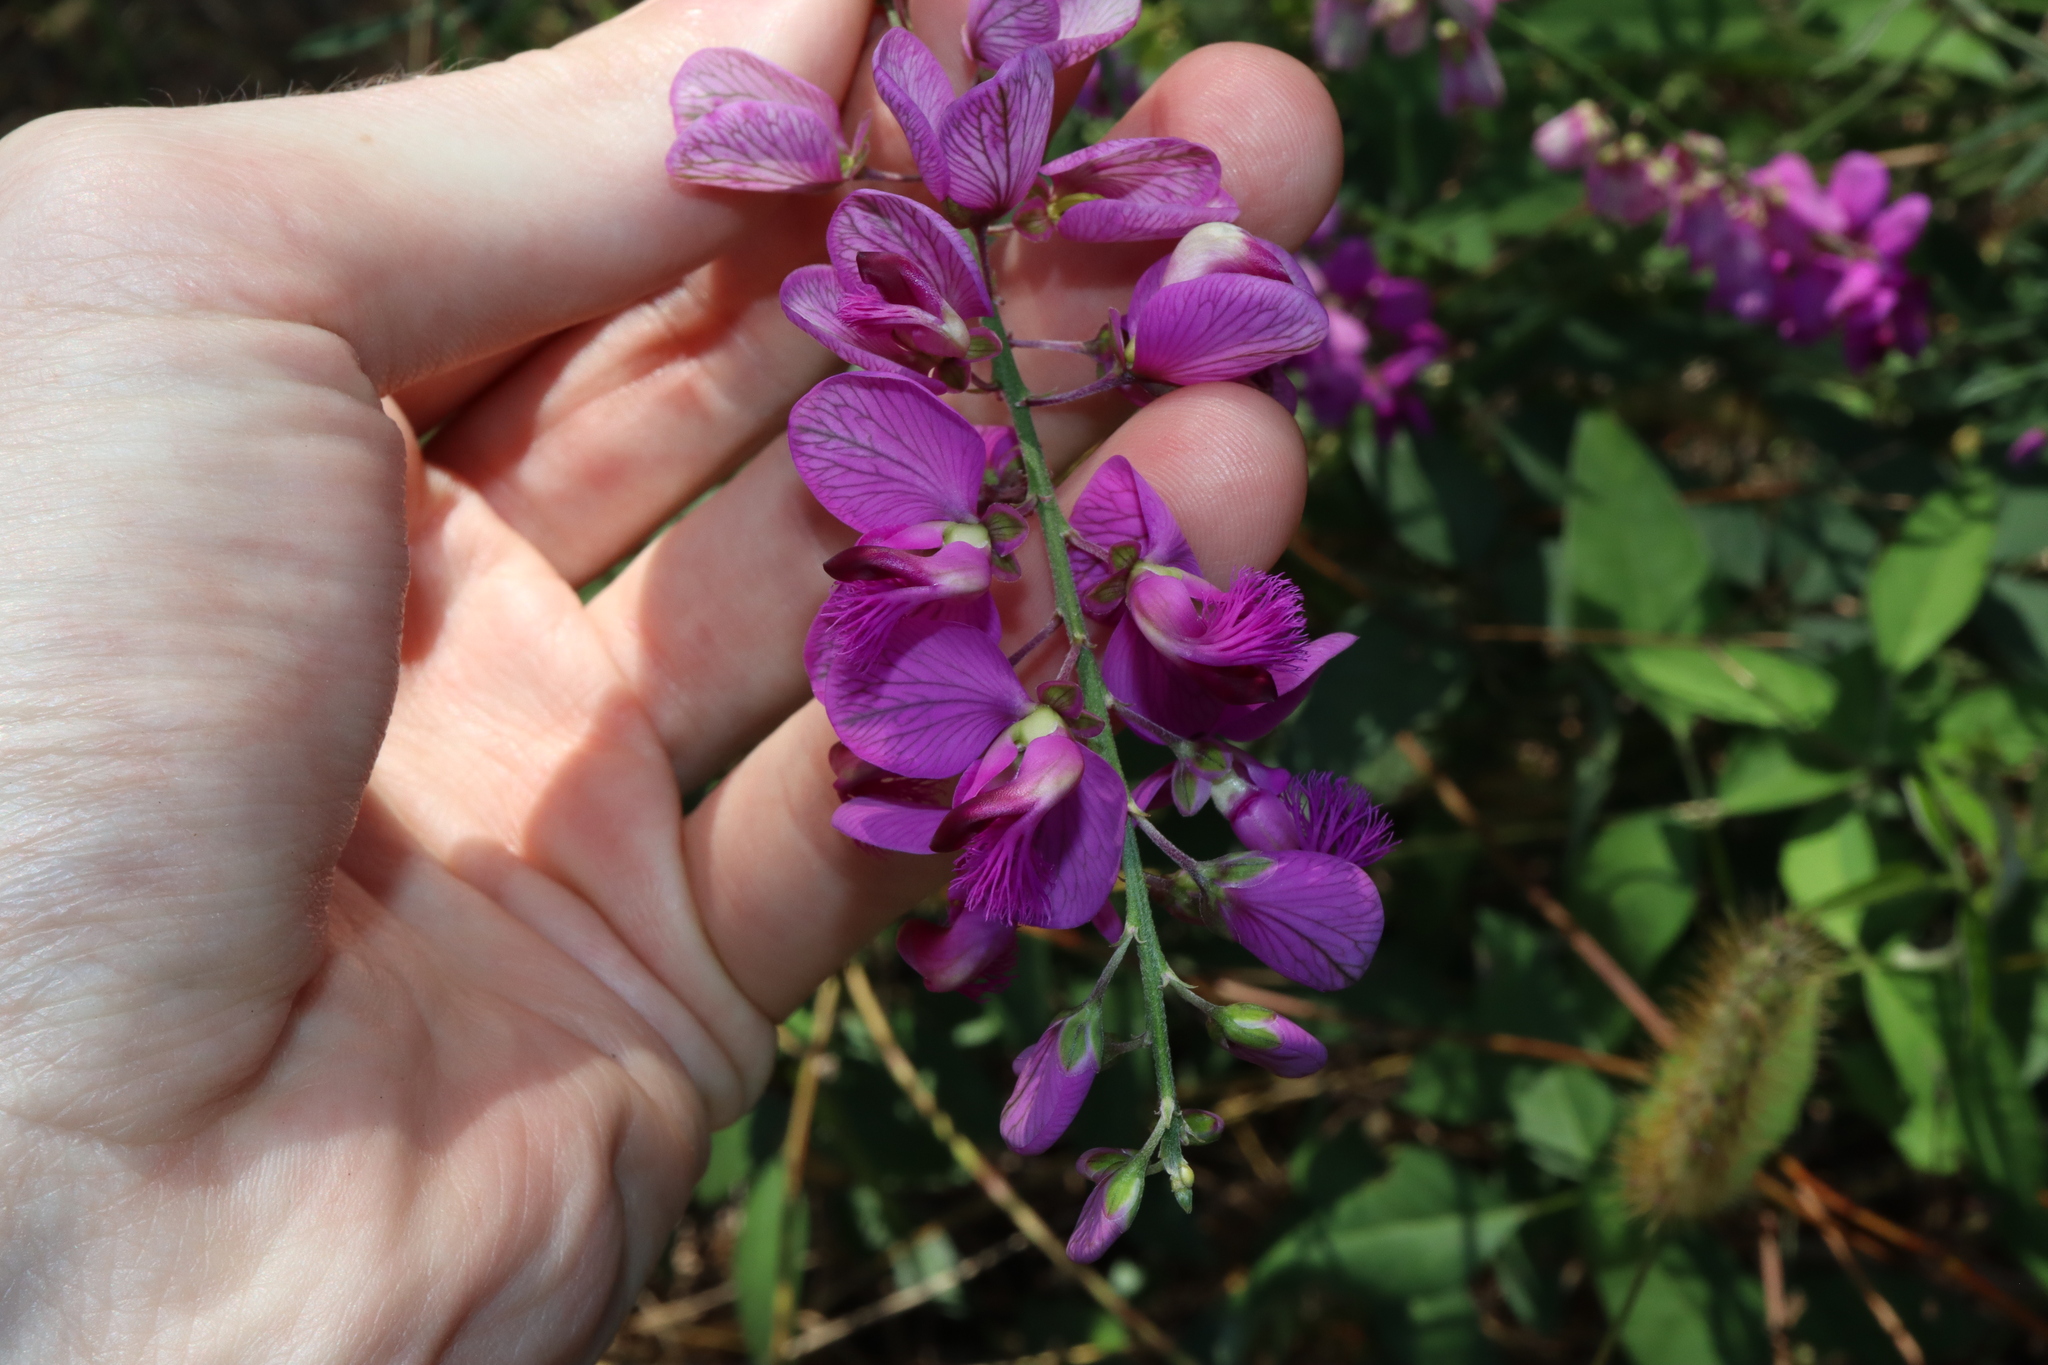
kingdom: Plantae
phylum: Tracheophyta
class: Magnoliopsida
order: Fabales
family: Polygalaceae
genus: Polygala
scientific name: Polygala virgata
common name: Milkwort
